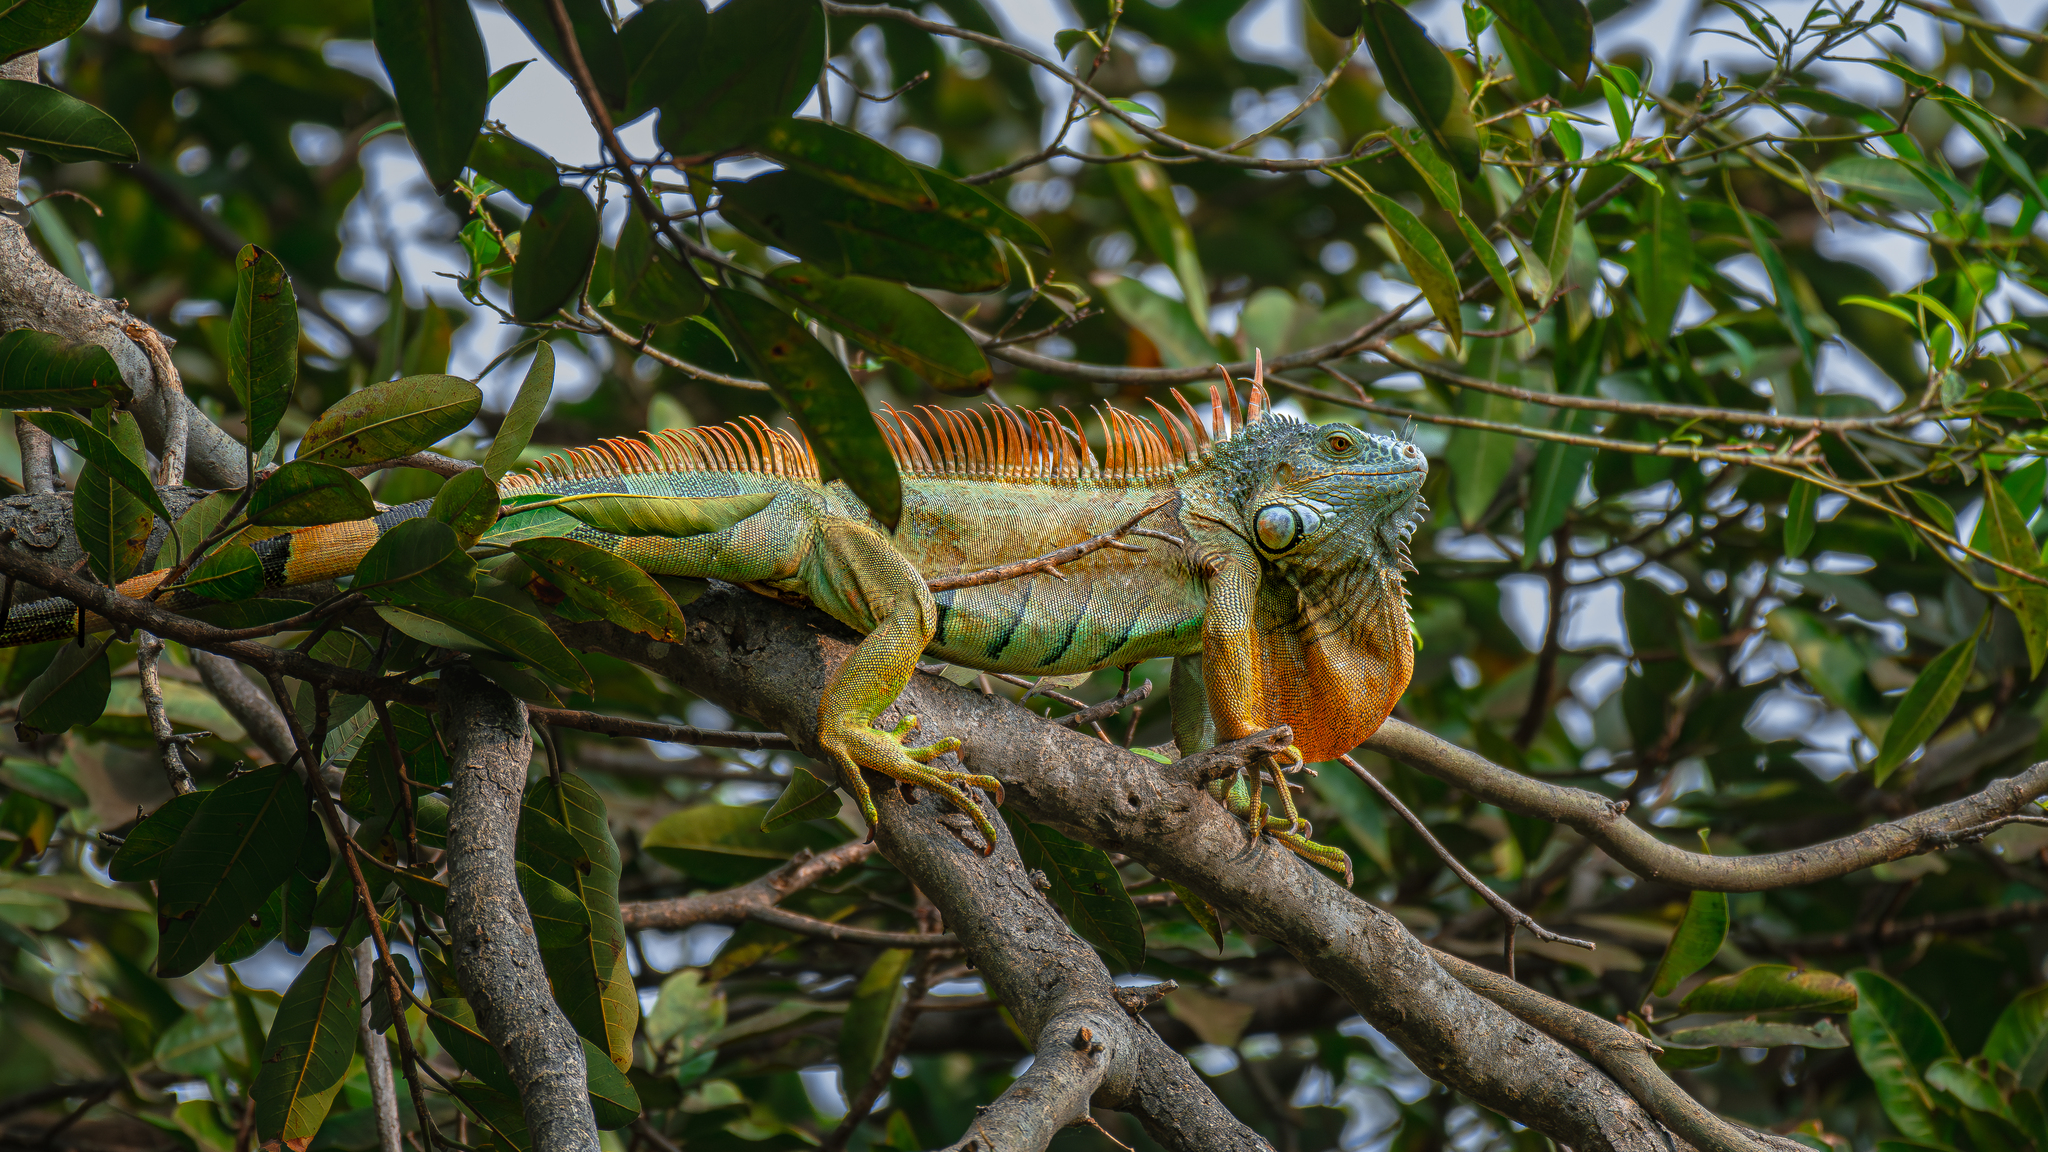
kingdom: Animalia
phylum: Chordata
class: Squamata
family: Iguanidae
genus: Iguana
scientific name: Iguana iguana
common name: Green iguana
